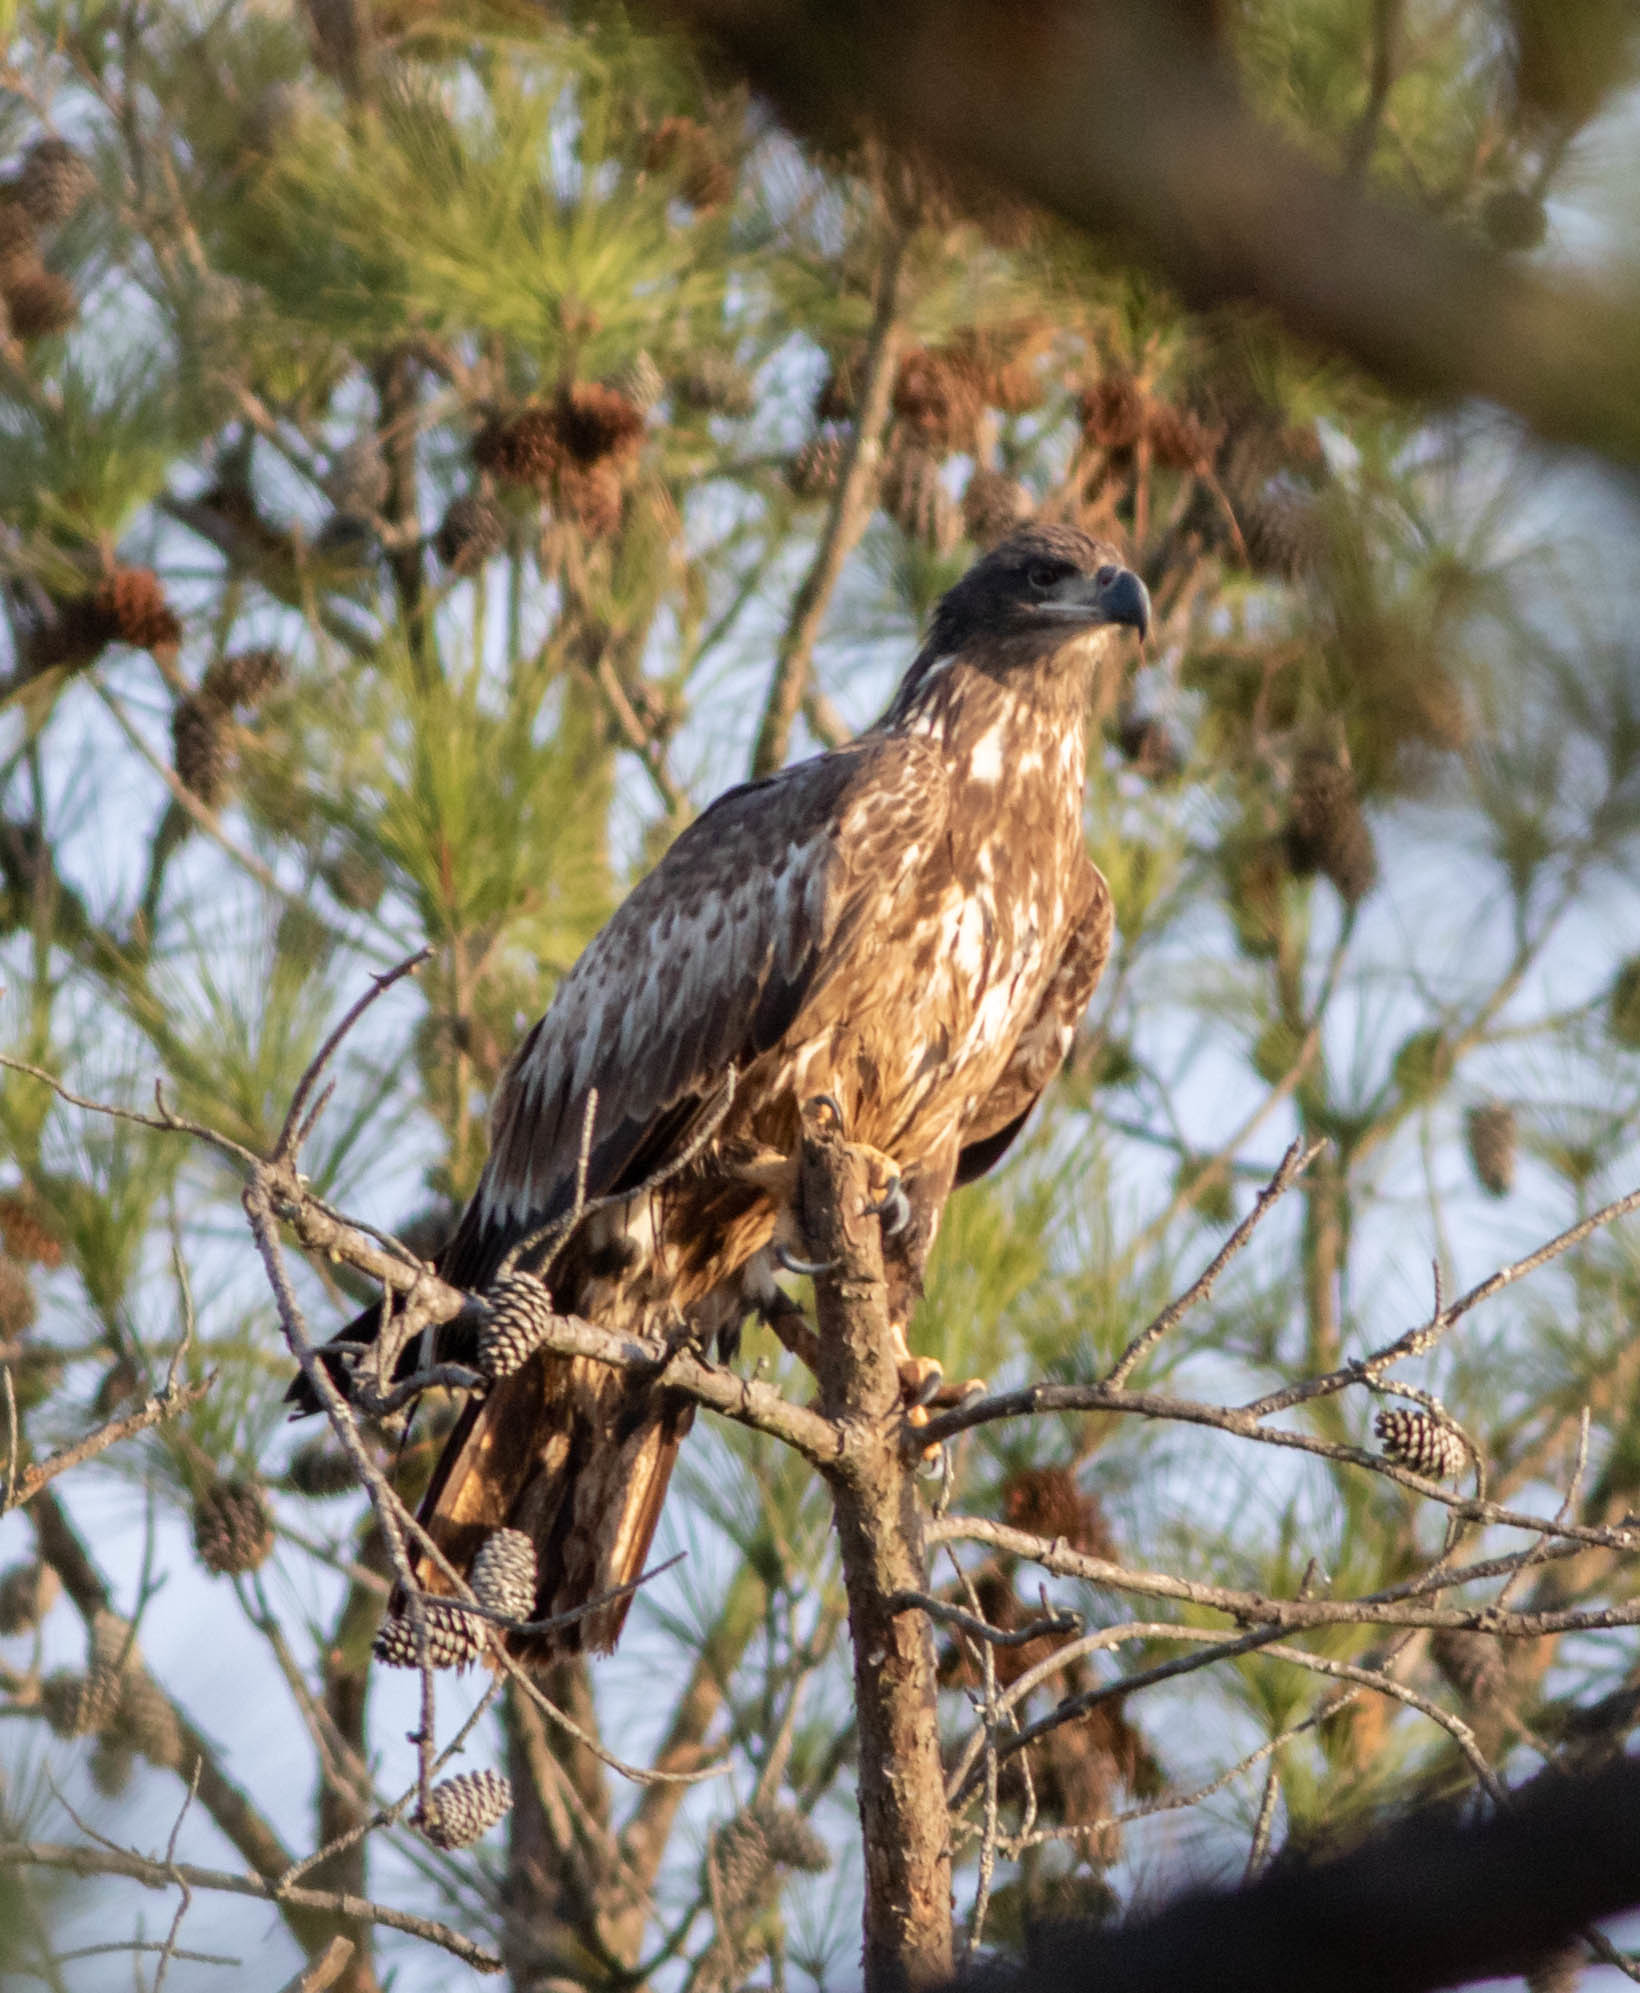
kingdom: Animalia
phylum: Chordata
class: Aves
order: Accipitriformes
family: Accipitridae
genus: Haliaeetus
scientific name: Haliaeetus leucocephalus
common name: Bald eagle
